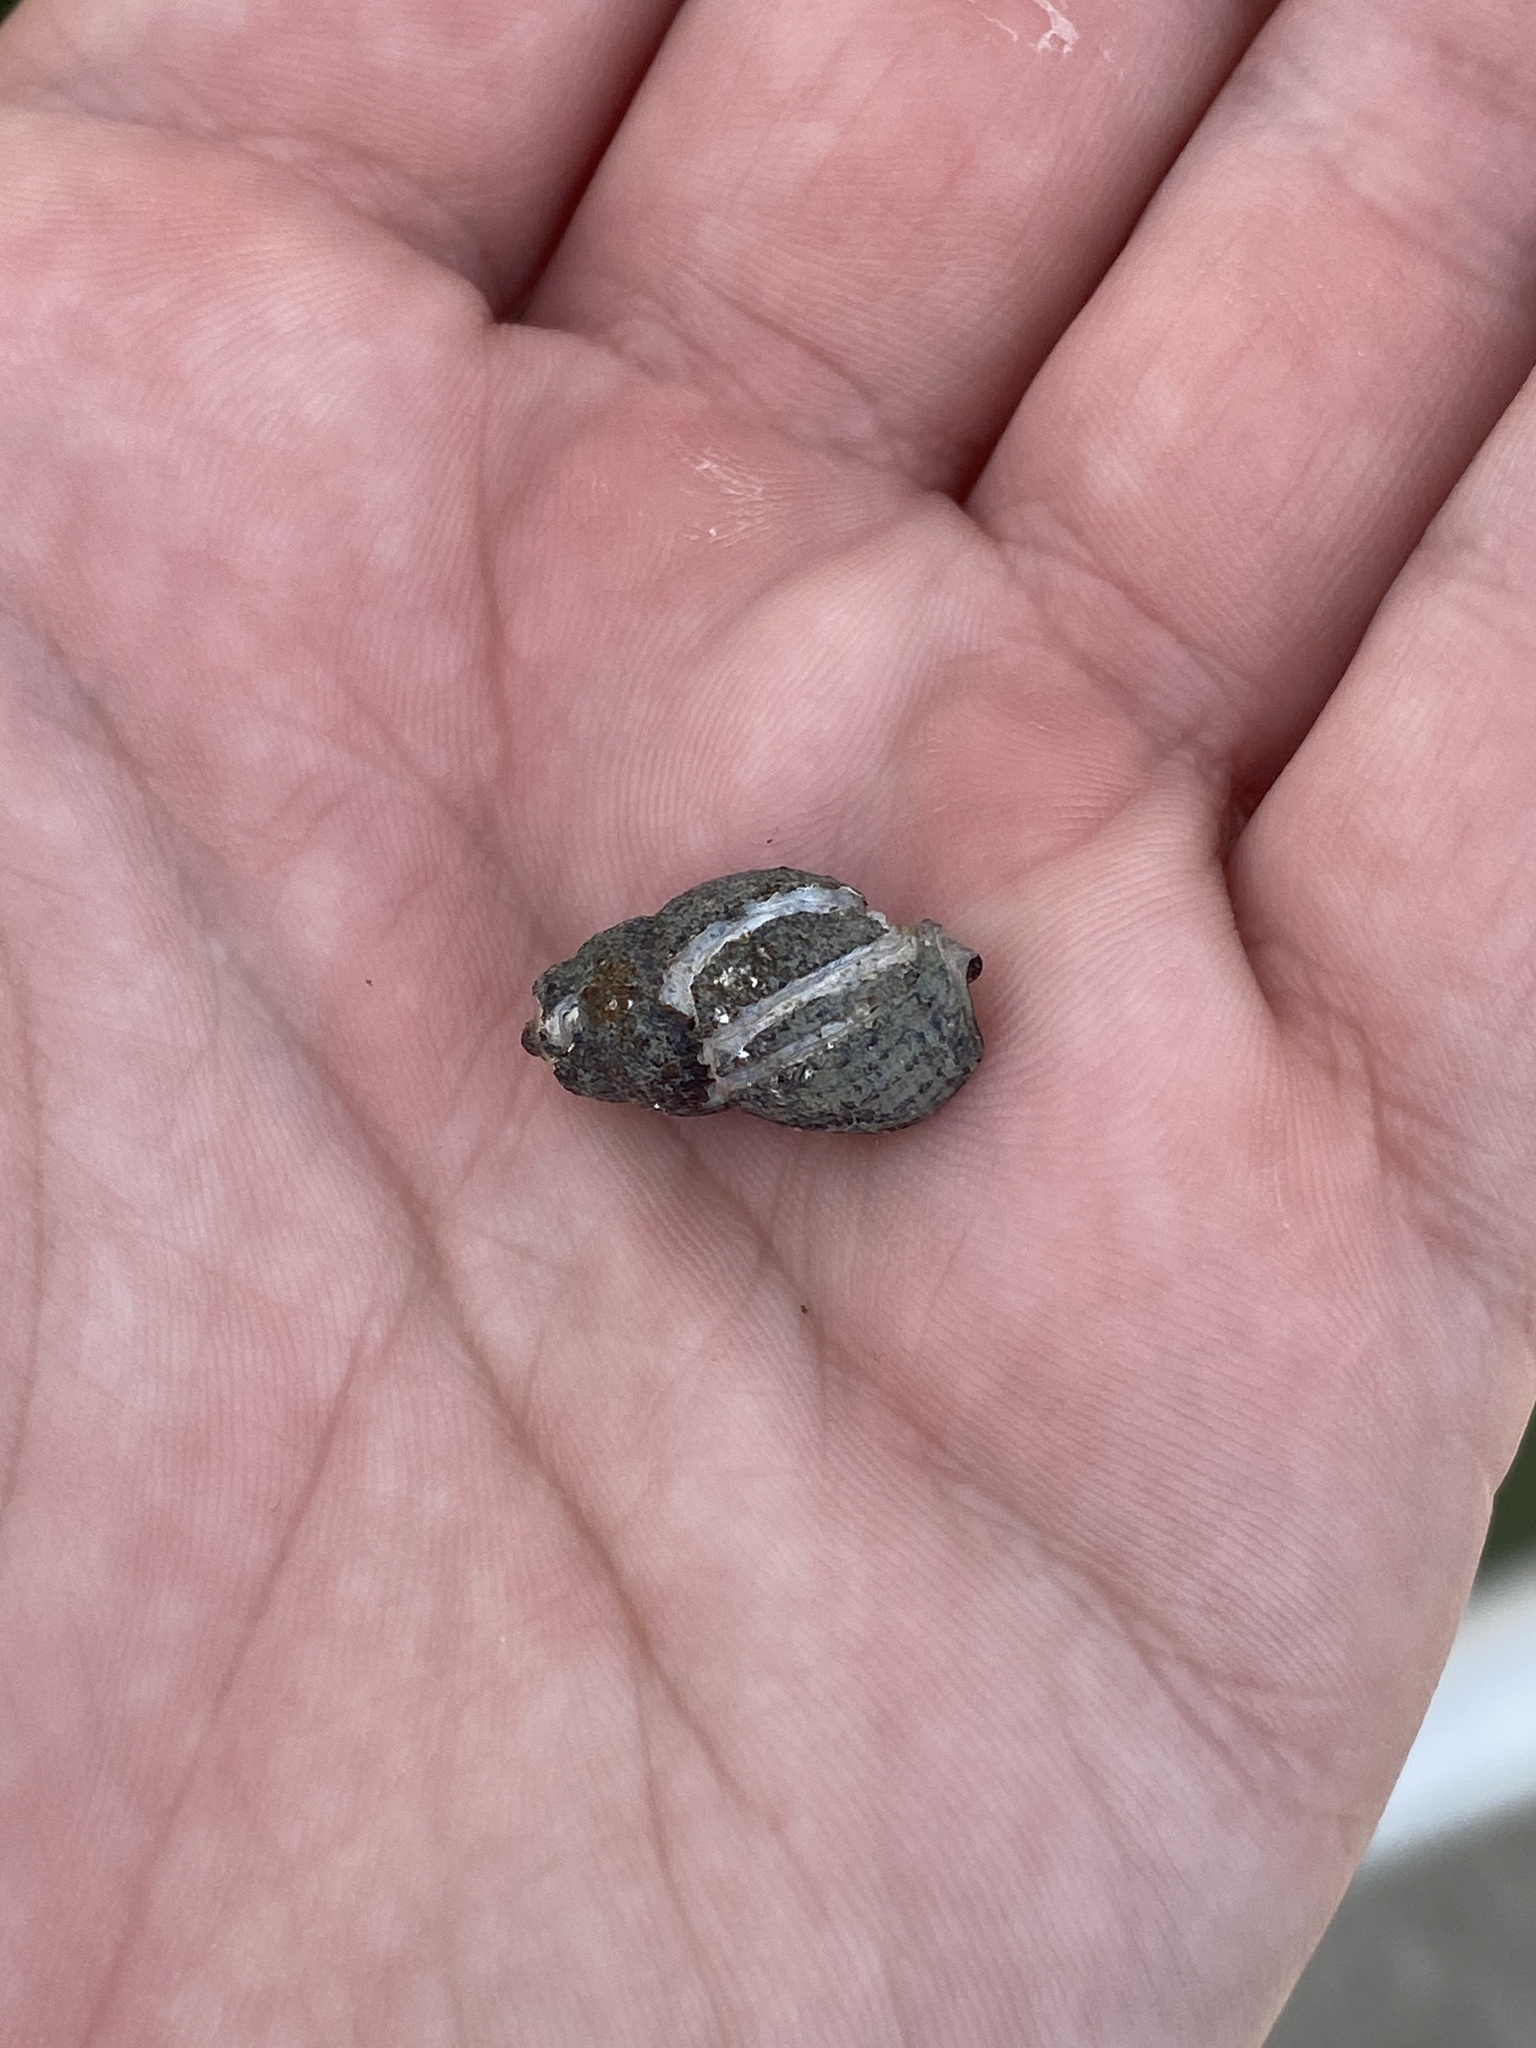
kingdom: Animalia
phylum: Mollusca
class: Gastropoda
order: Neogastropoda
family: Nassariidae
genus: Ilyanassa
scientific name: Ilyanassa obsoleta
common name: Eastern mudsnail
